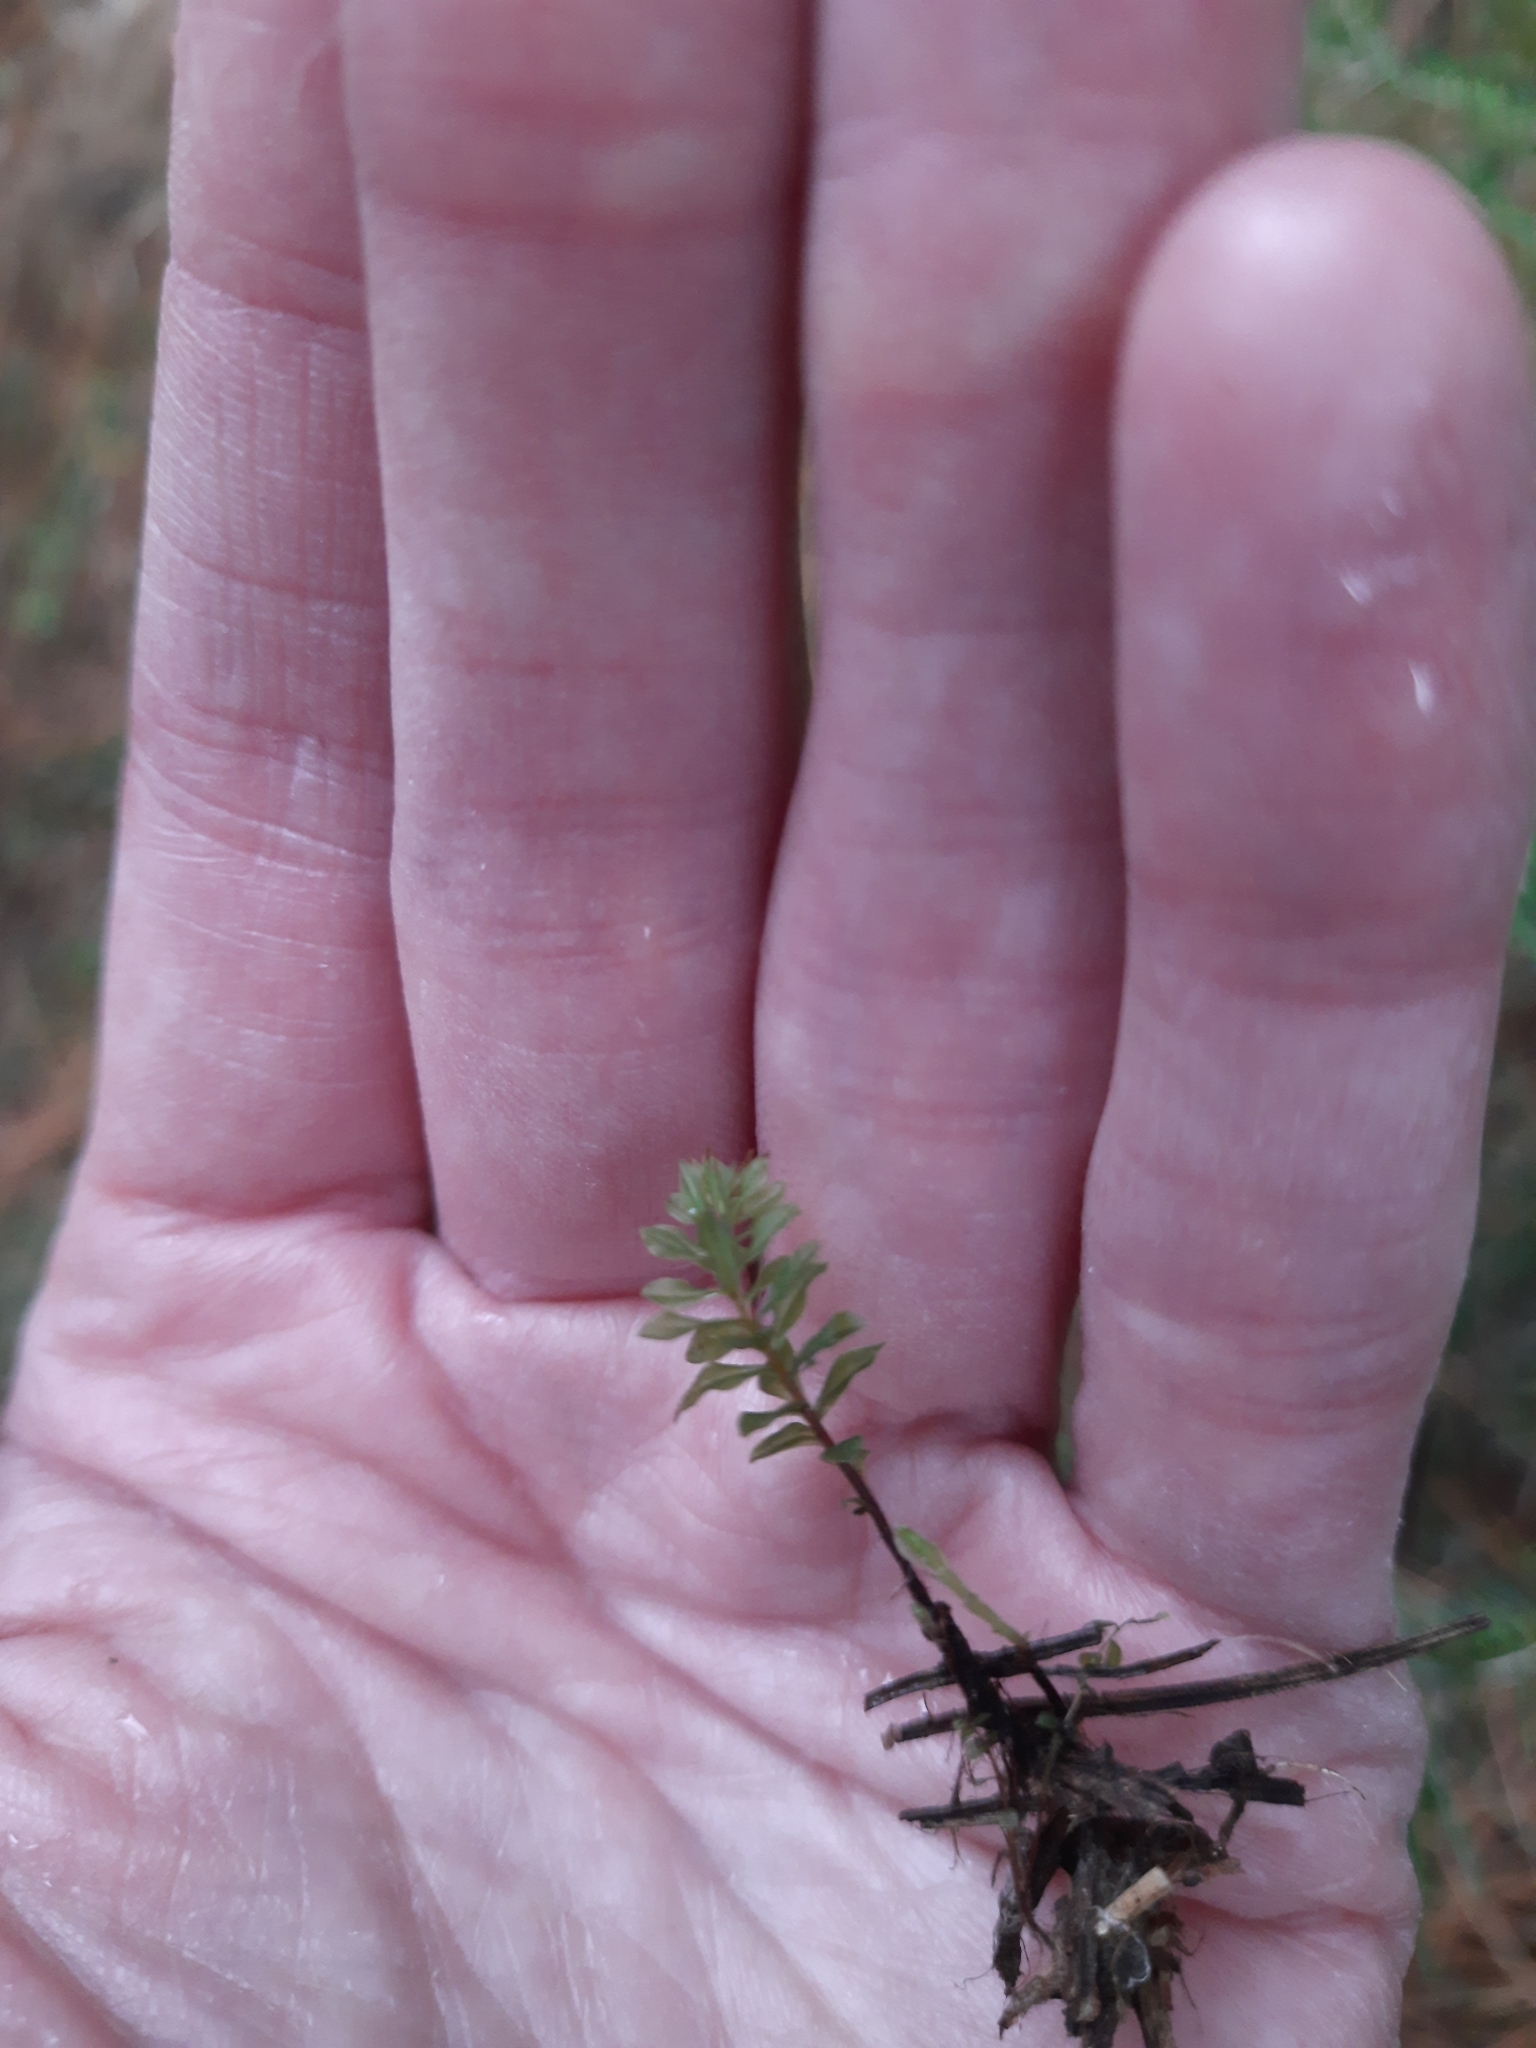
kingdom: Plantae
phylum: Bryophyta
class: Bryopsida
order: Bryales
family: Mniaceae
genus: Plagiomnium
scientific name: Plagiomnium ellipticum
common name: Marsh leafy moss
